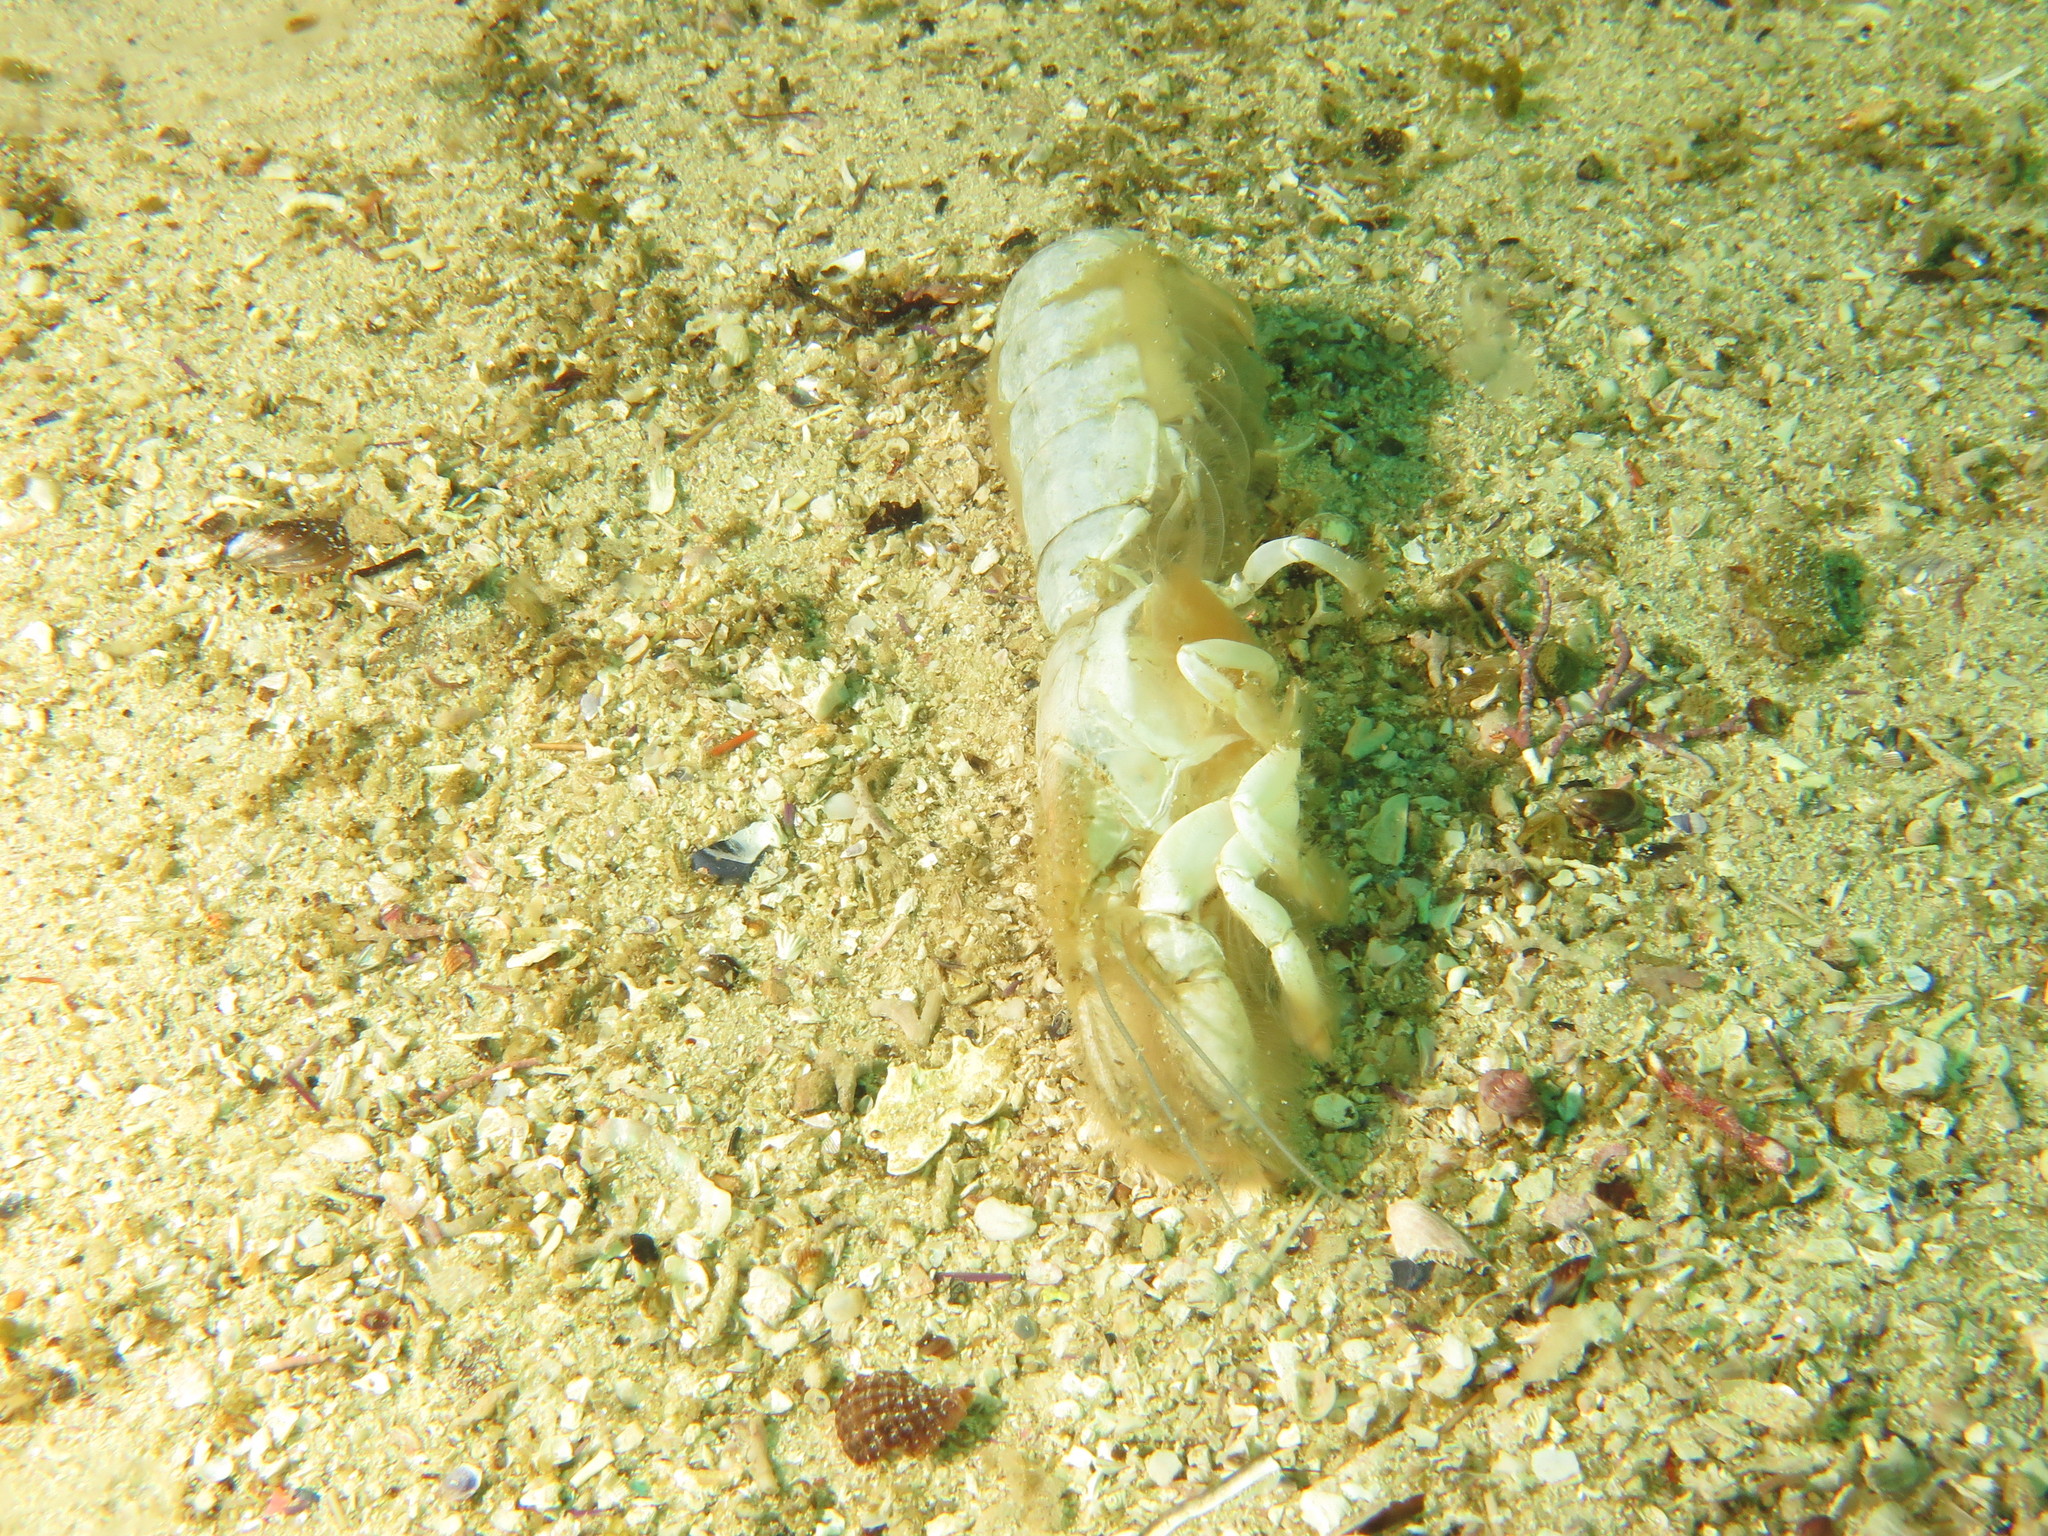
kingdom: Animalia
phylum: Arthropoda
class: Malacostraca
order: Decapoda
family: Callichiridae
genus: Kraussillichirus
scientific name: Kraussillichirus kraussi
